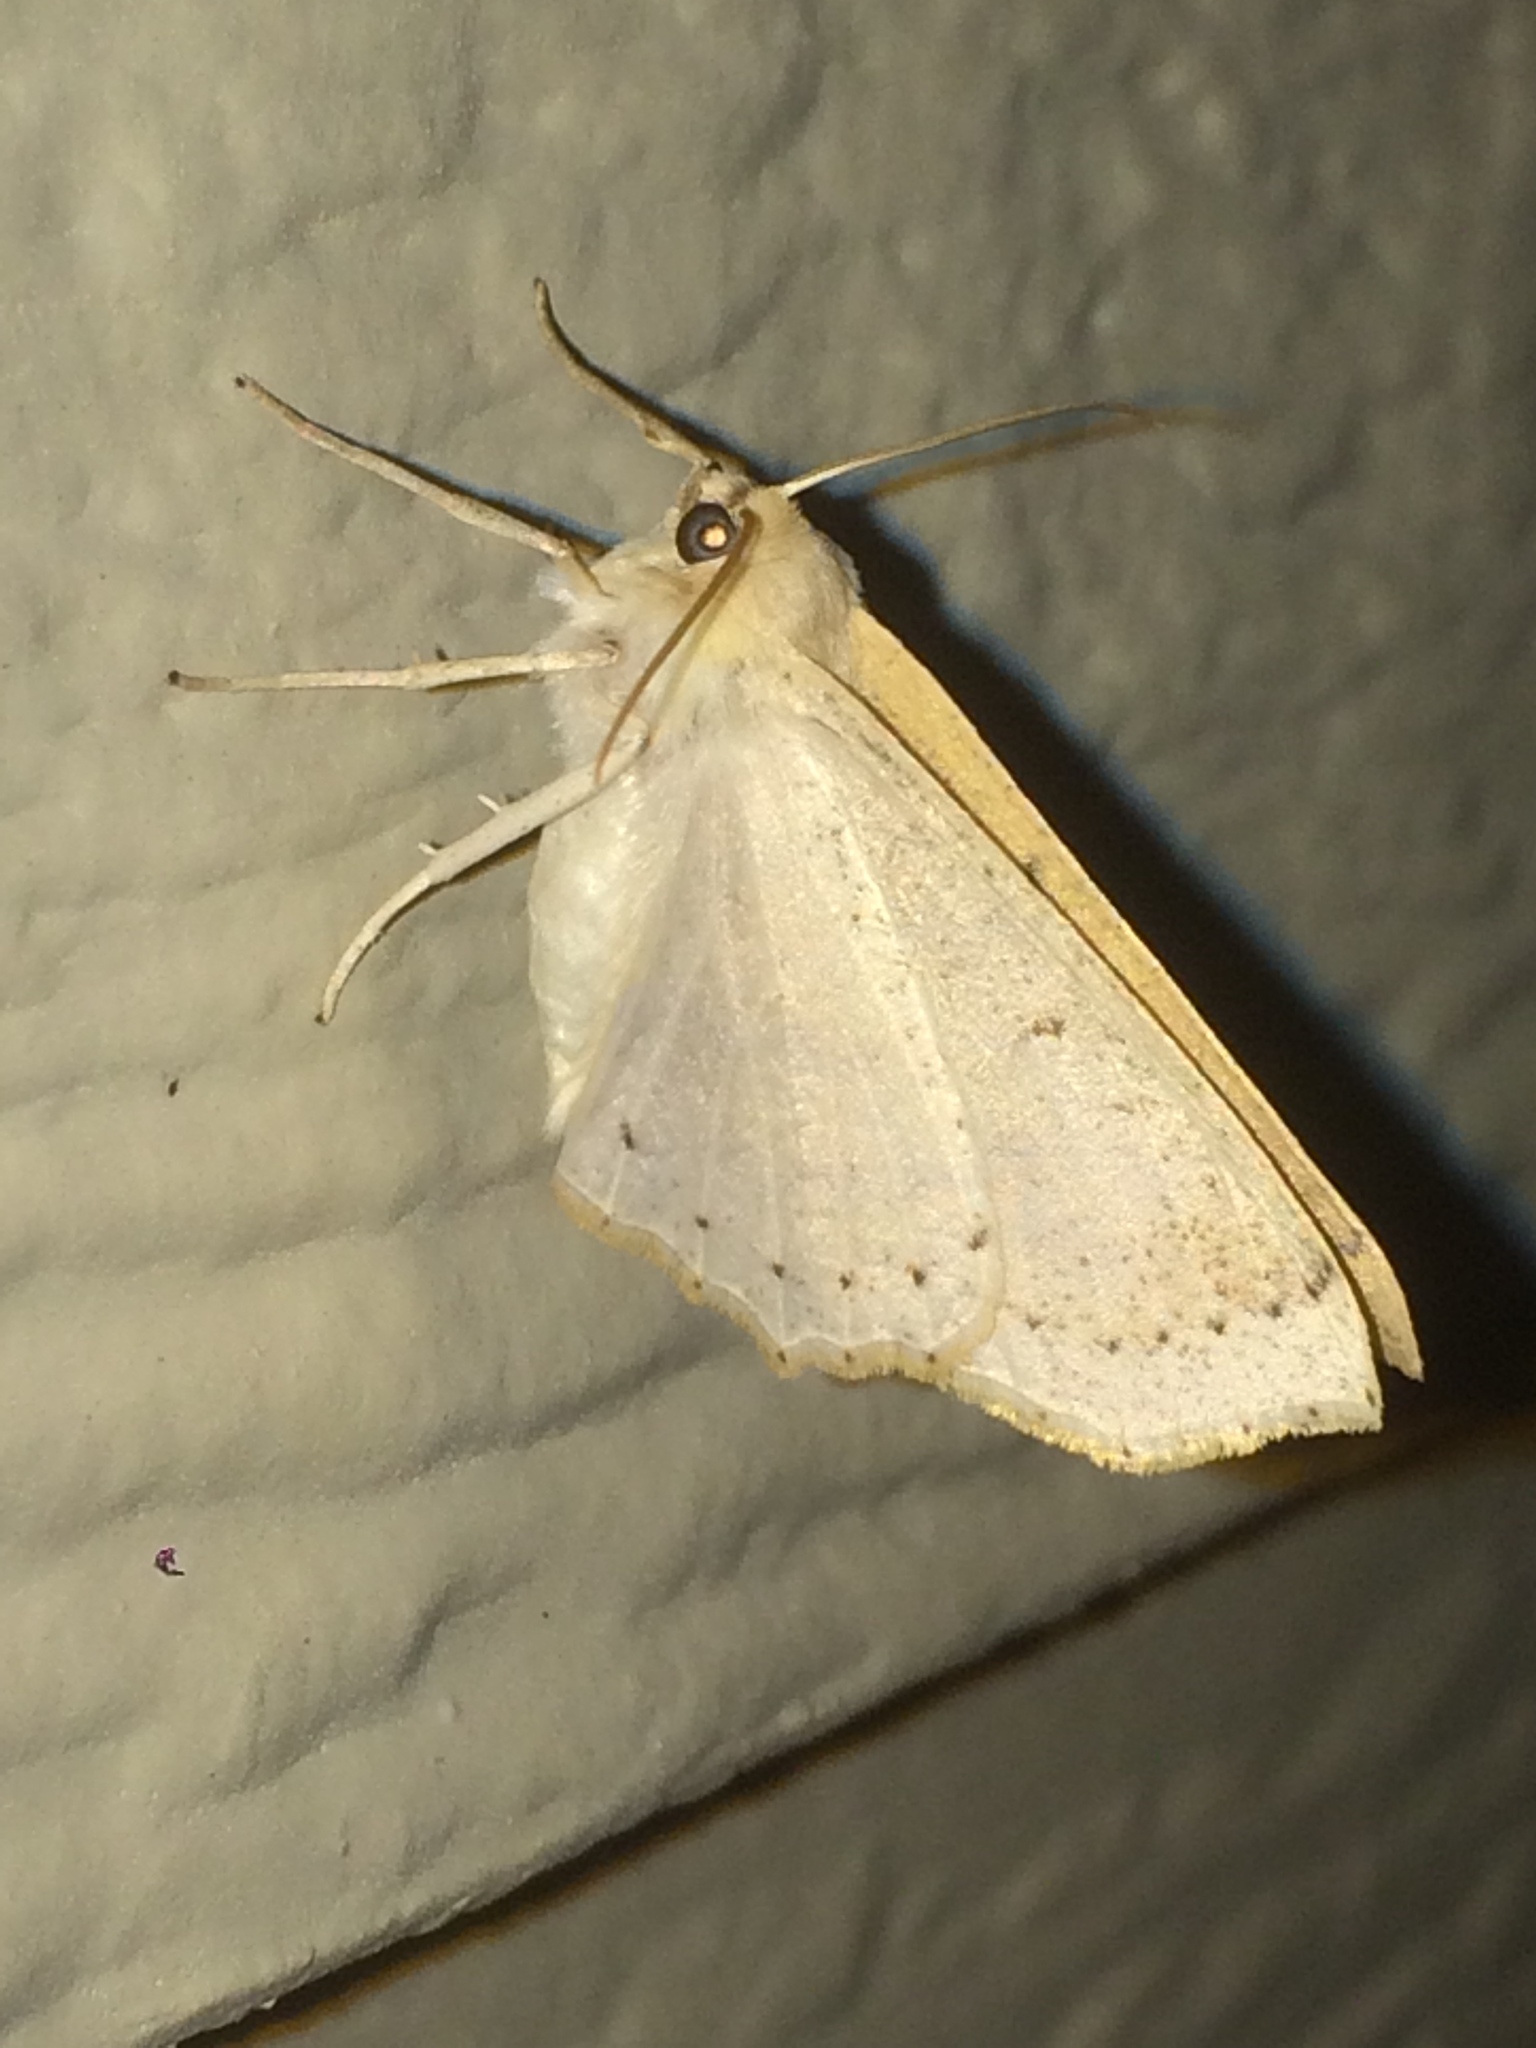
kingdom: Animalia
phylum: Arthropoda
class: Insecta
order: Lepidoptera
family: Geometridae
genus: Sabulodes
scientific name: Sabulodes aegrotata
